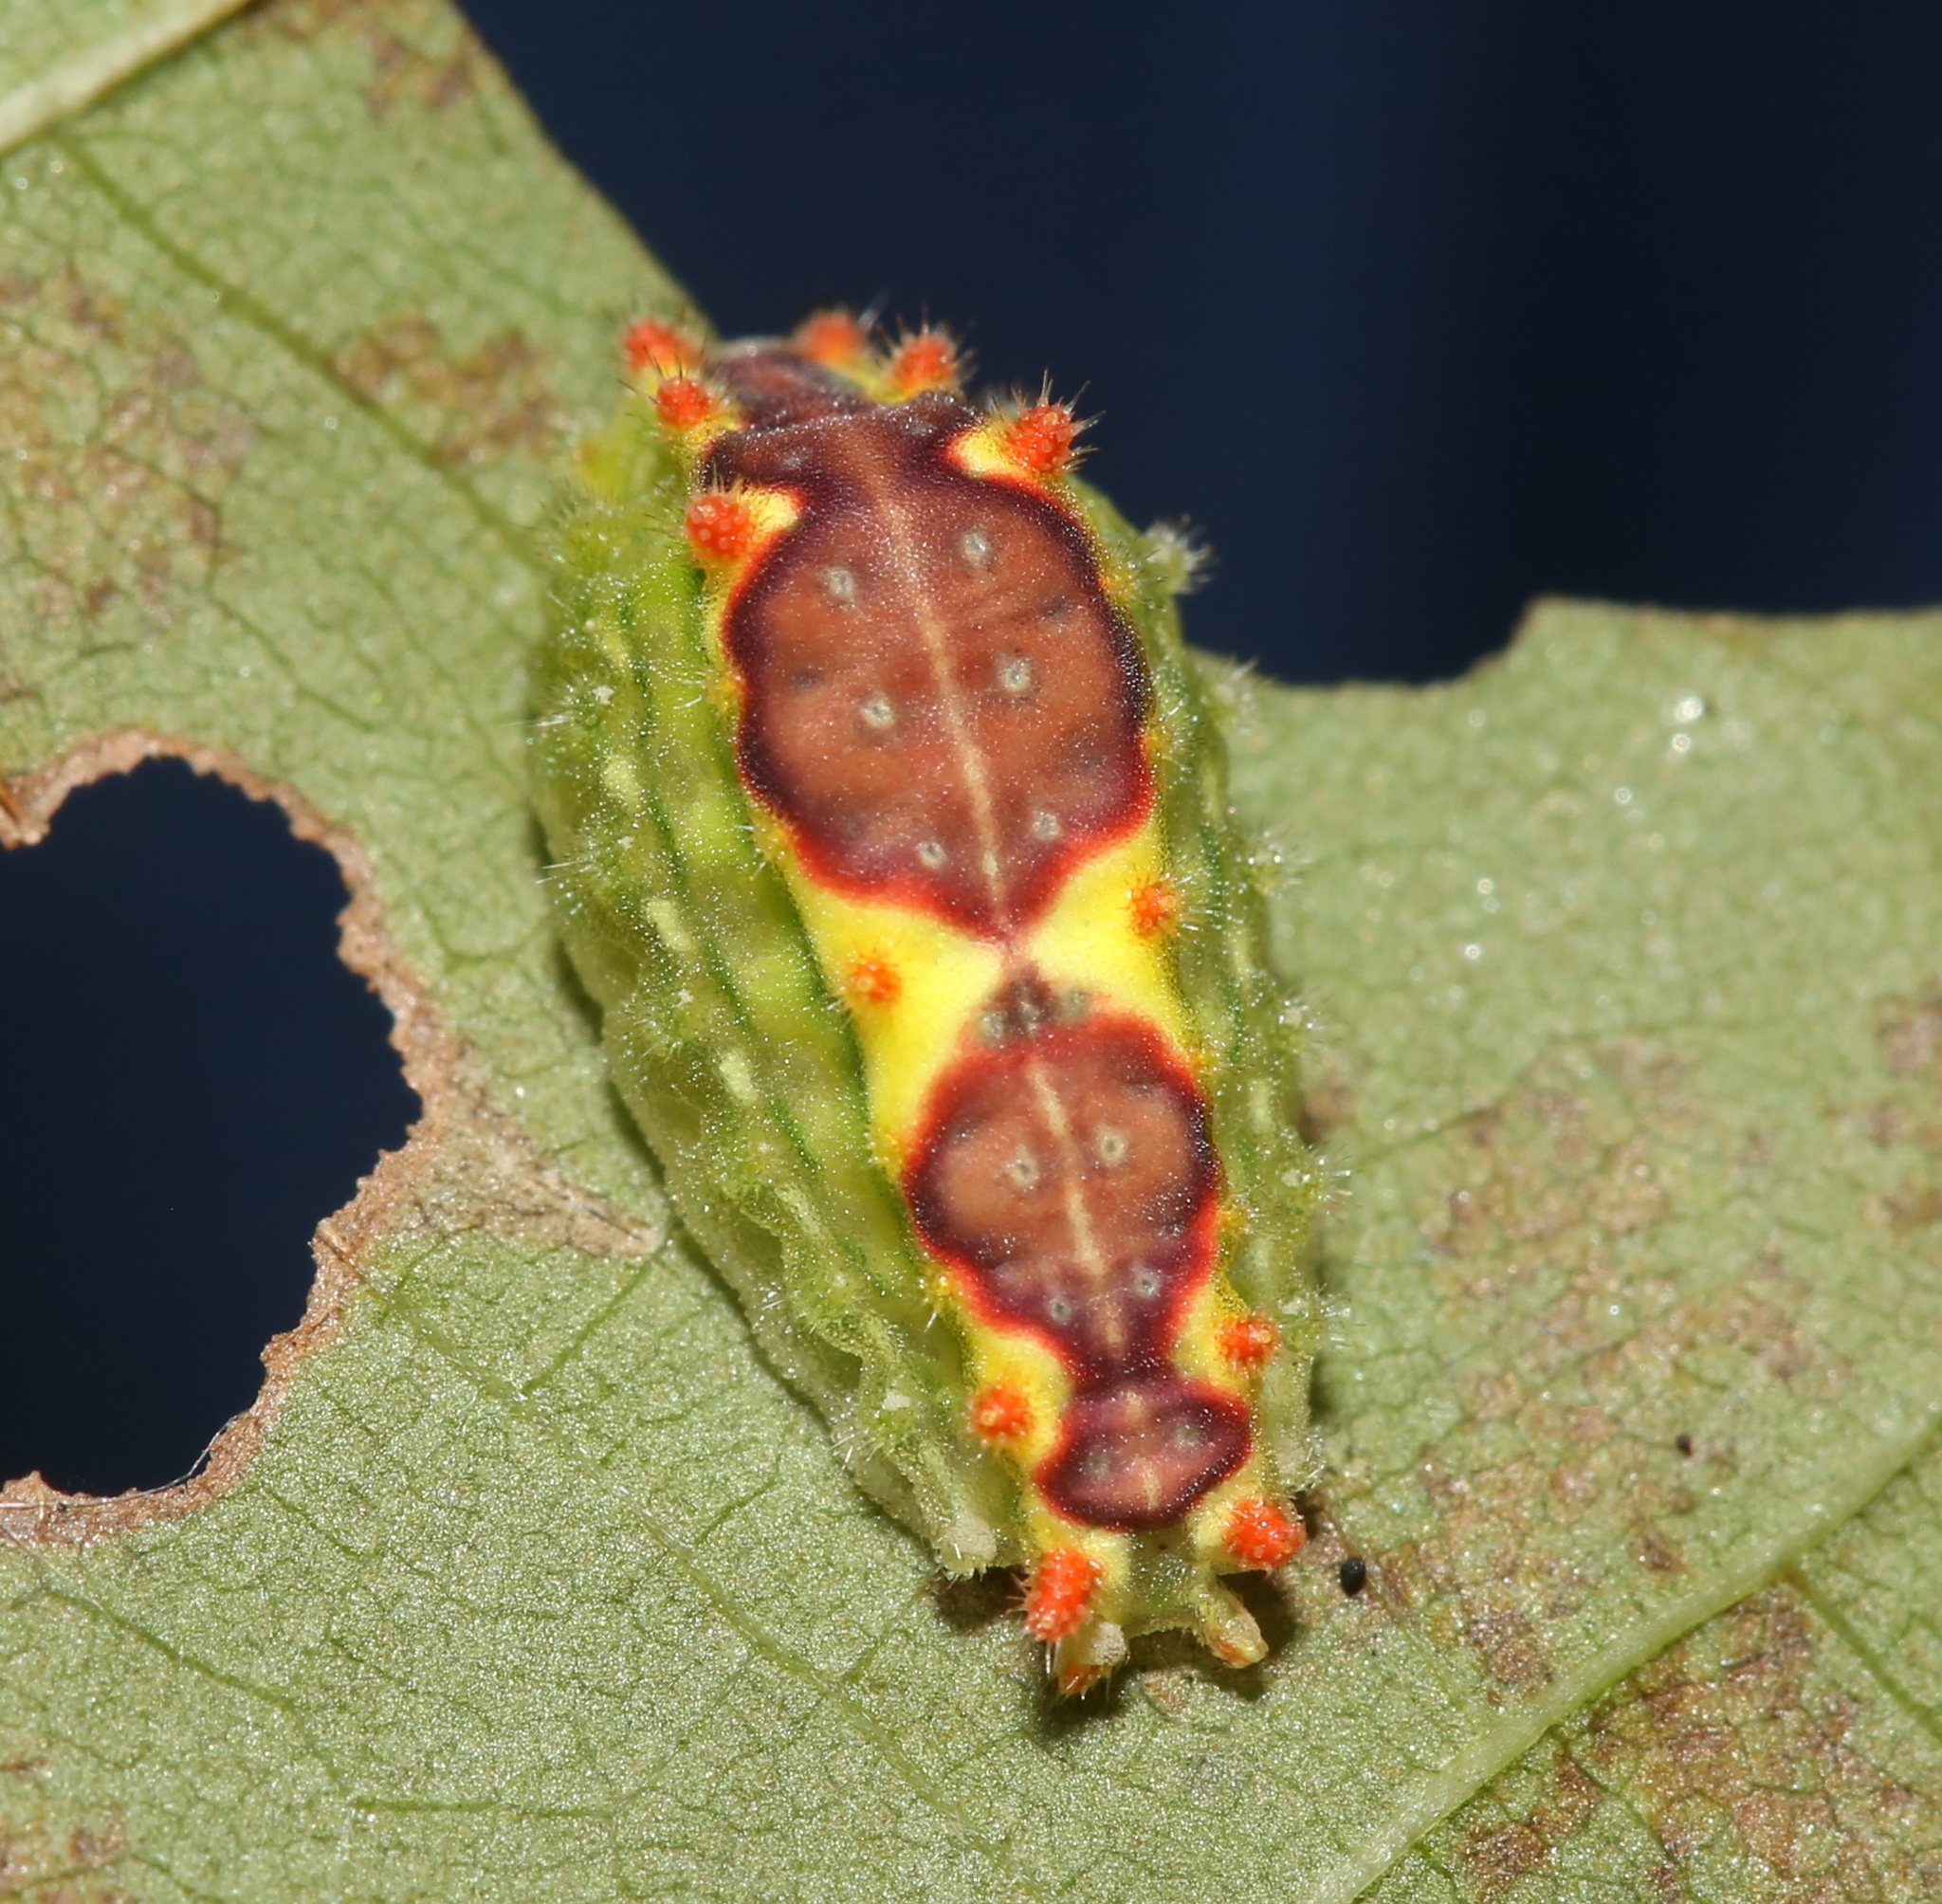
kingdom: Animalia
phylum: Arthropoda
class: Insecta
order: Lepidoptera
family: Limacodidae
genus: Adoneta
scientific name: Adoneta spinuloides
